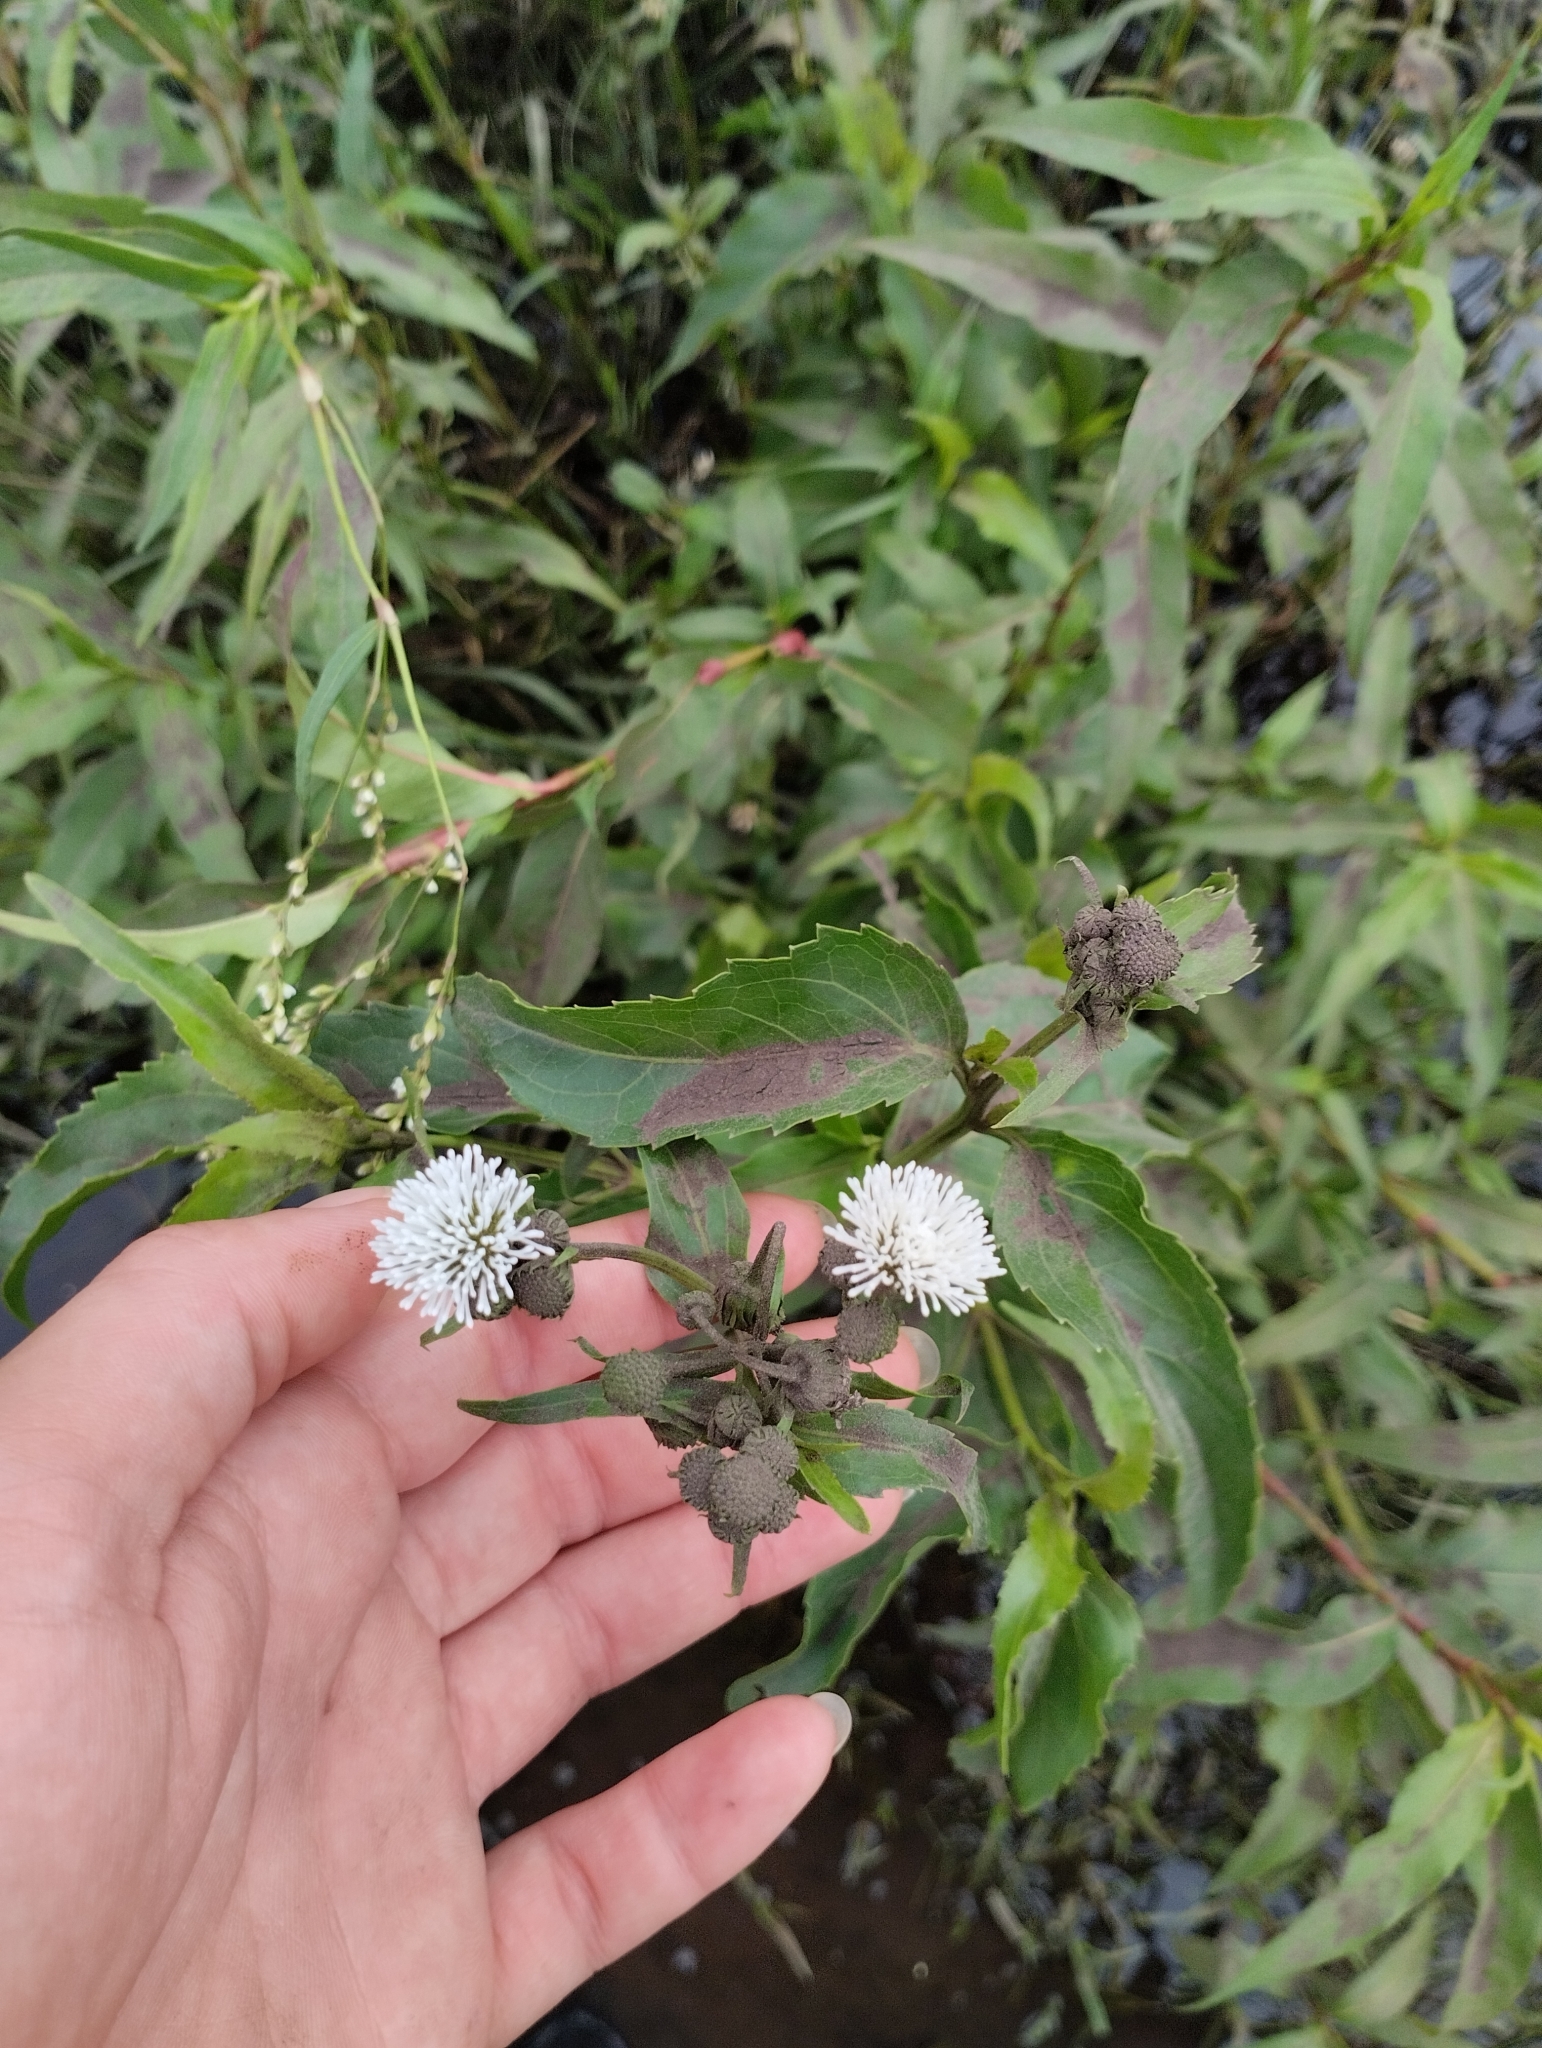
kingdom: Plantae
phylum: Tracheophyta
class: Magnoliopsida
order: Asterales
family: Asteraceae
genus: Gymnocoronis
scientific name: Gymnocoronis spilanthoides
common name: Senegal teaplant
